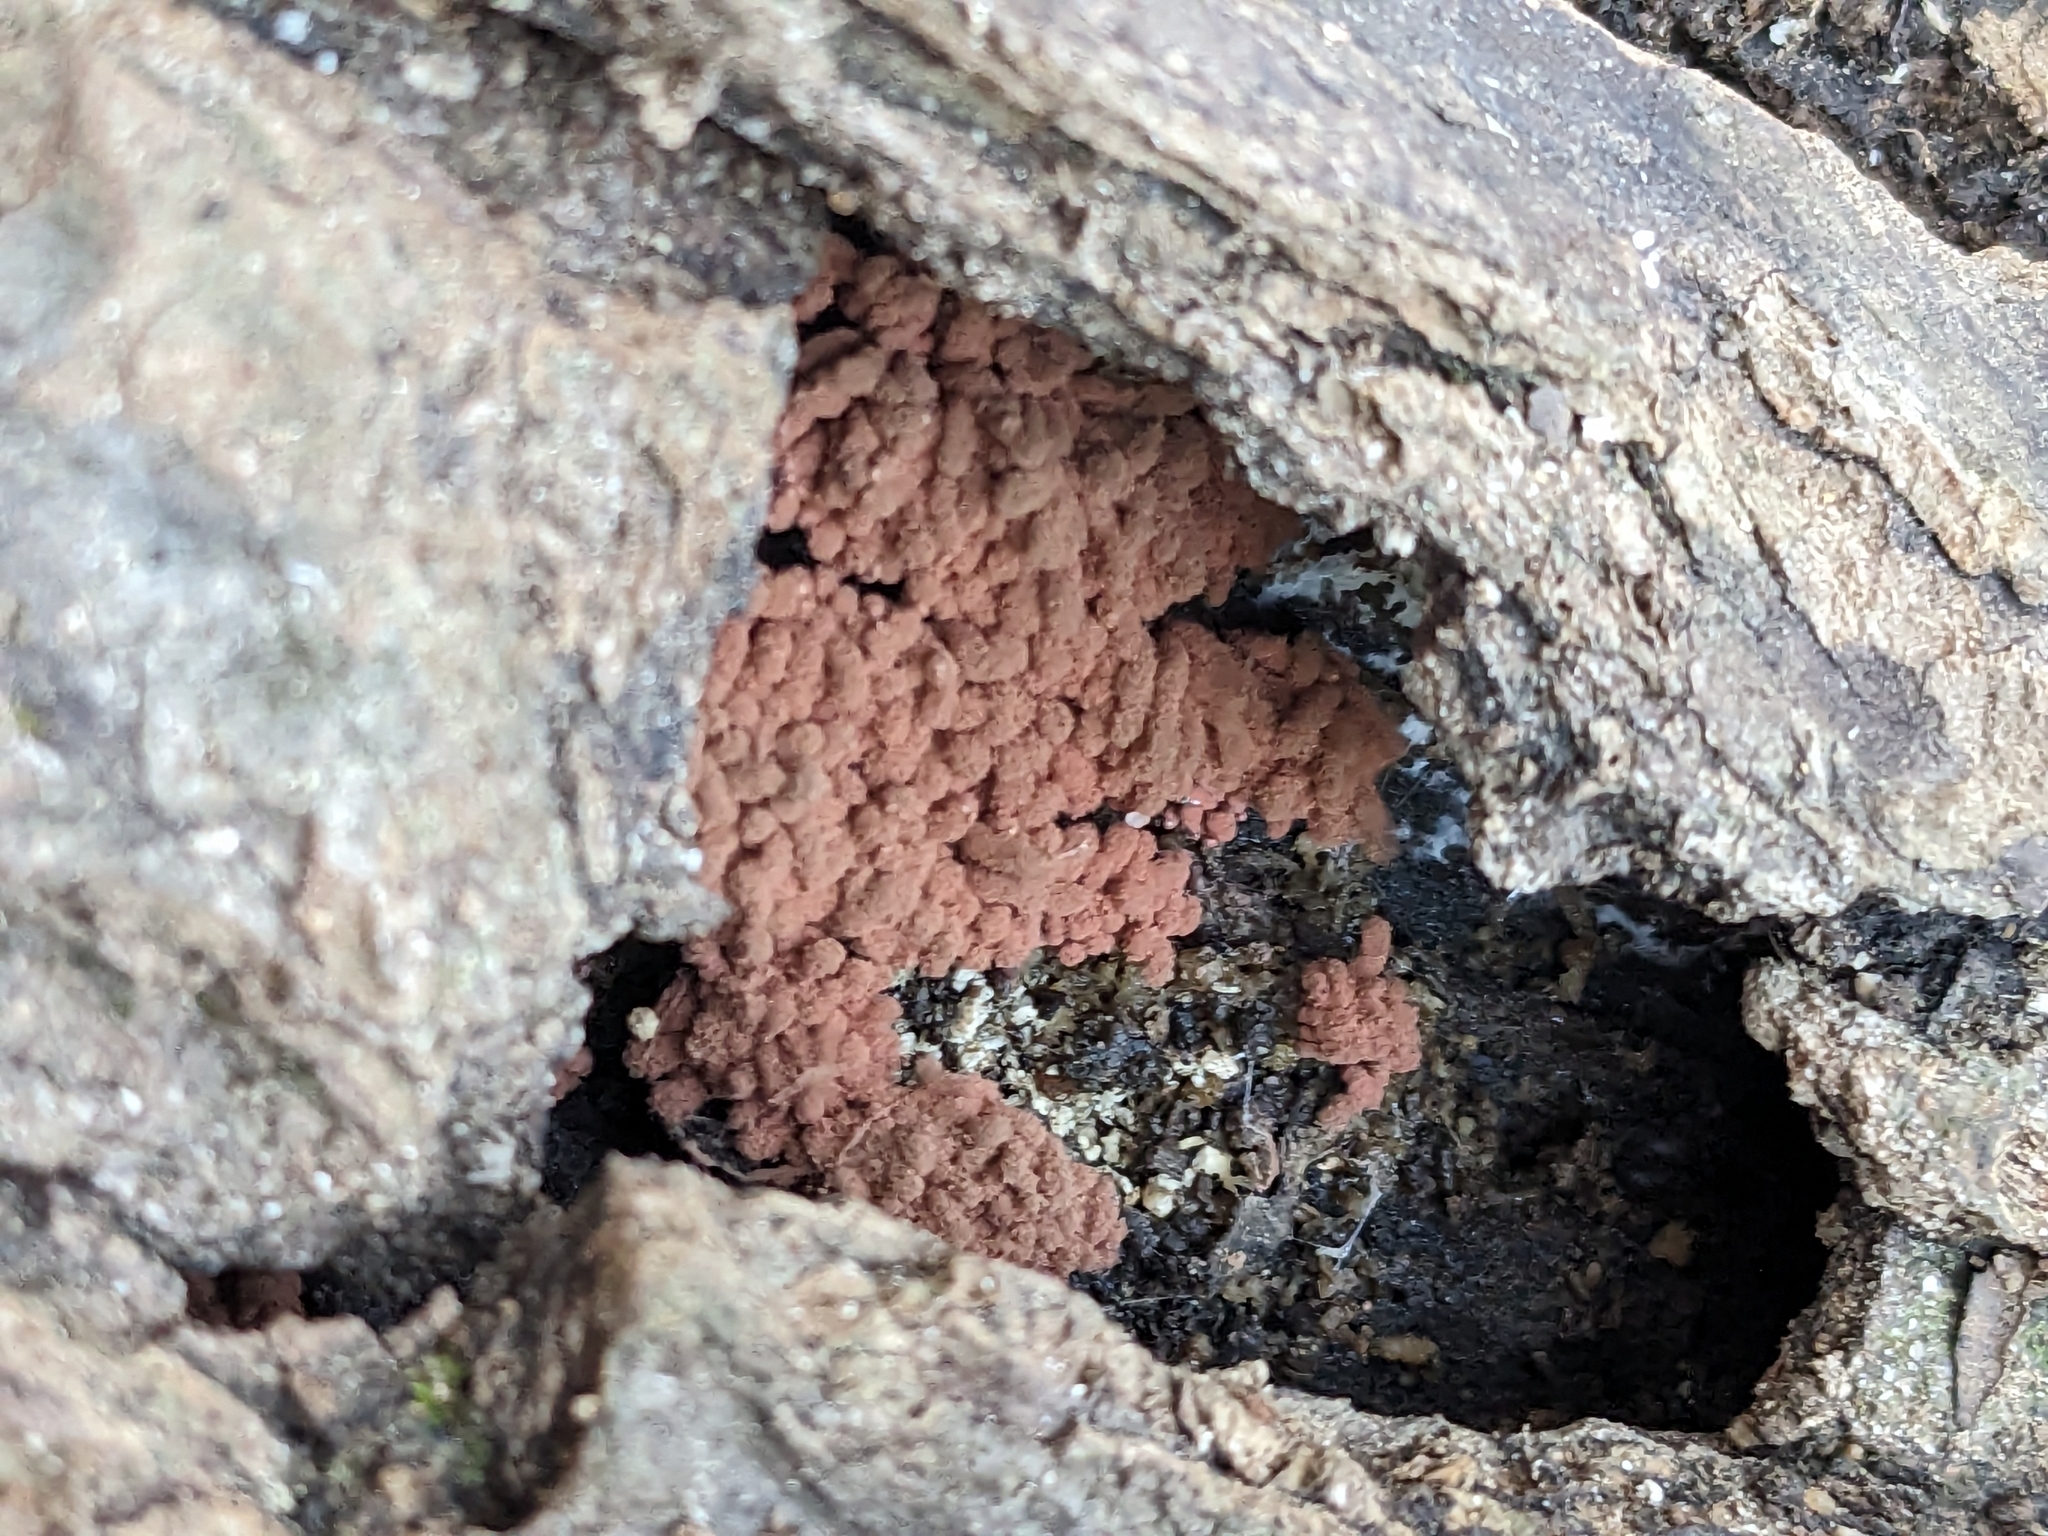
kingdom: Protozoa
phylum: Mycetozoa
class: Myxomycetes
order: Trichiales
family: Arcyriaceae
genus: Arcyria
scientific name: Arcyria denudata
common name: Carnival candy slime mold
